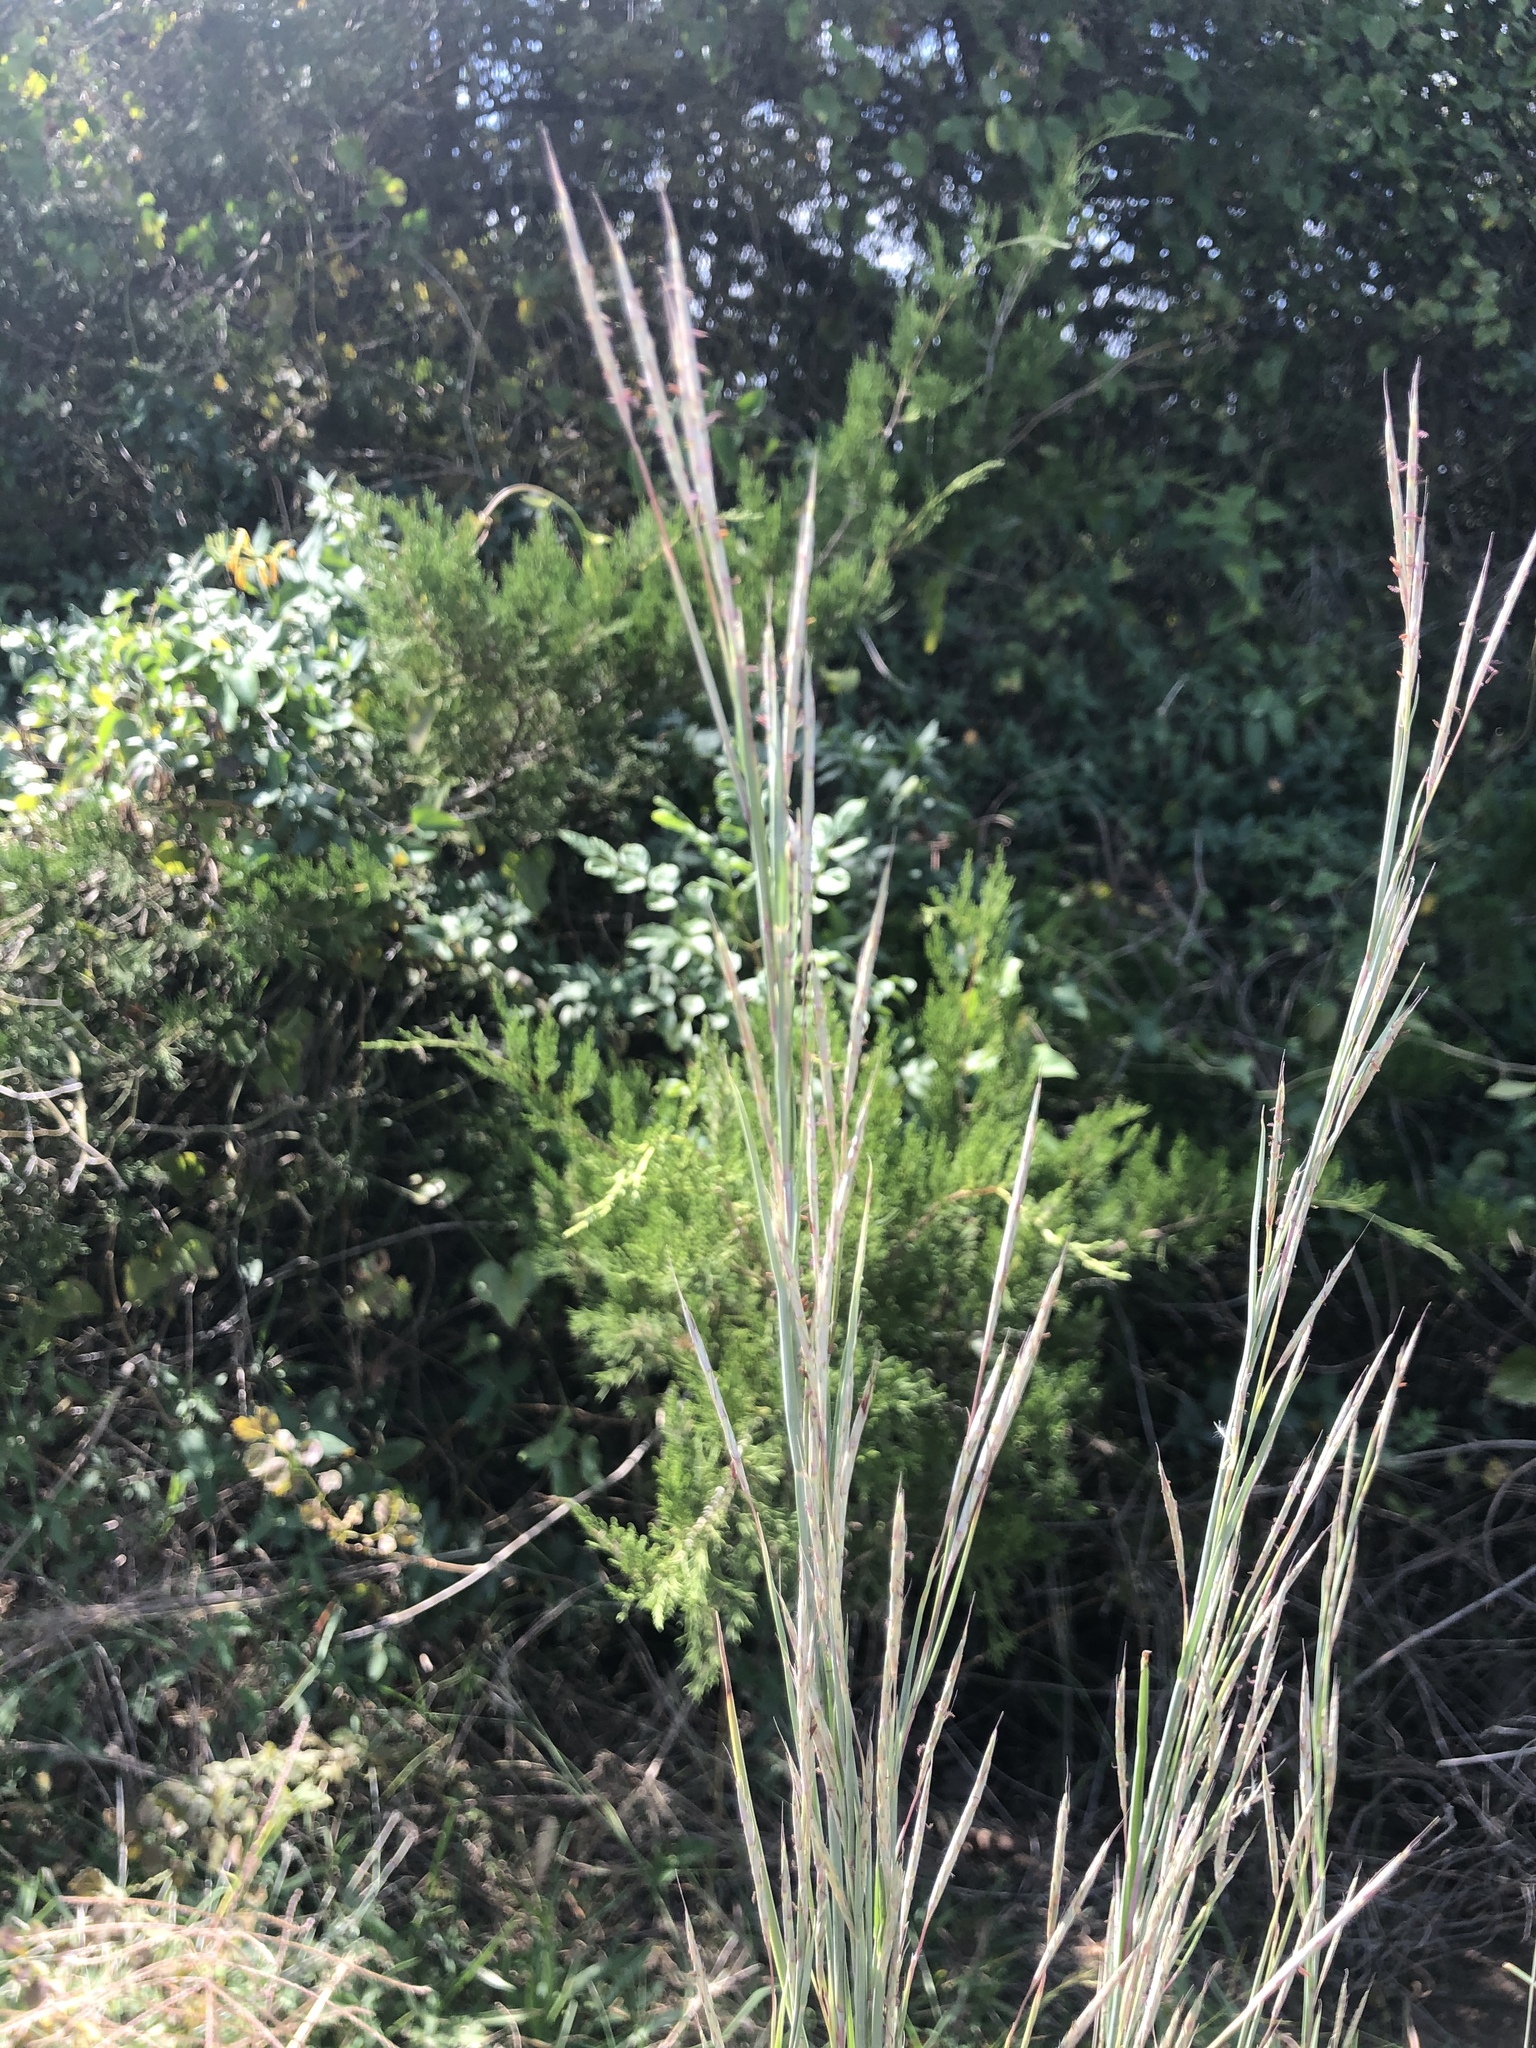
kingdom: Plantae
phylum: Tracheophyta
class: Liliopsida
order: Poales
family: Poaceae
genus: Schizachyrium
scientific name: Schizachyrium scoparium
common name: Little bluestem
